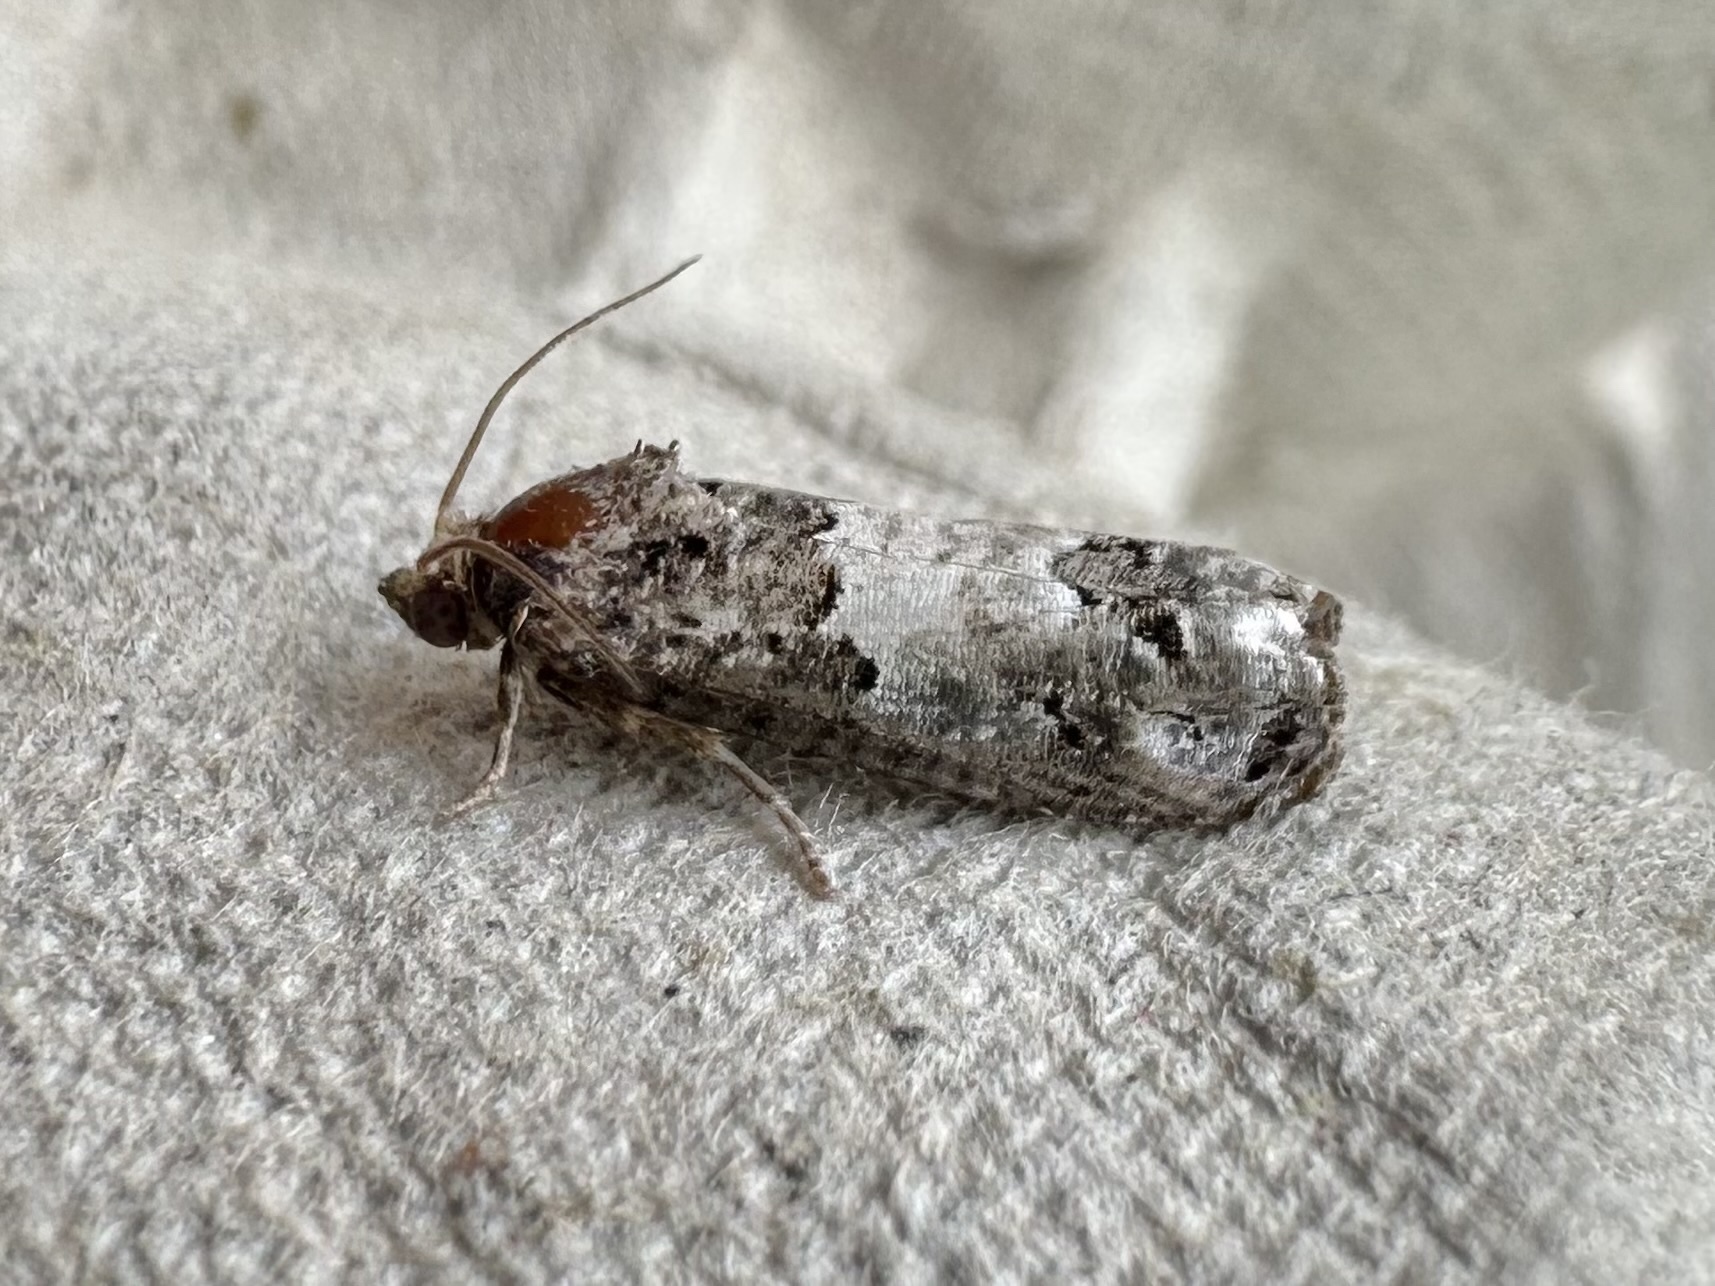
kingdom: Animalia
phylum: Arthropoda
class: Insecta
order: Lepidoptera
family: Tortricidae
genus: Epiblema
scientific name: Epiblema carolinana
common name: Gray-blotched epiblema moth
